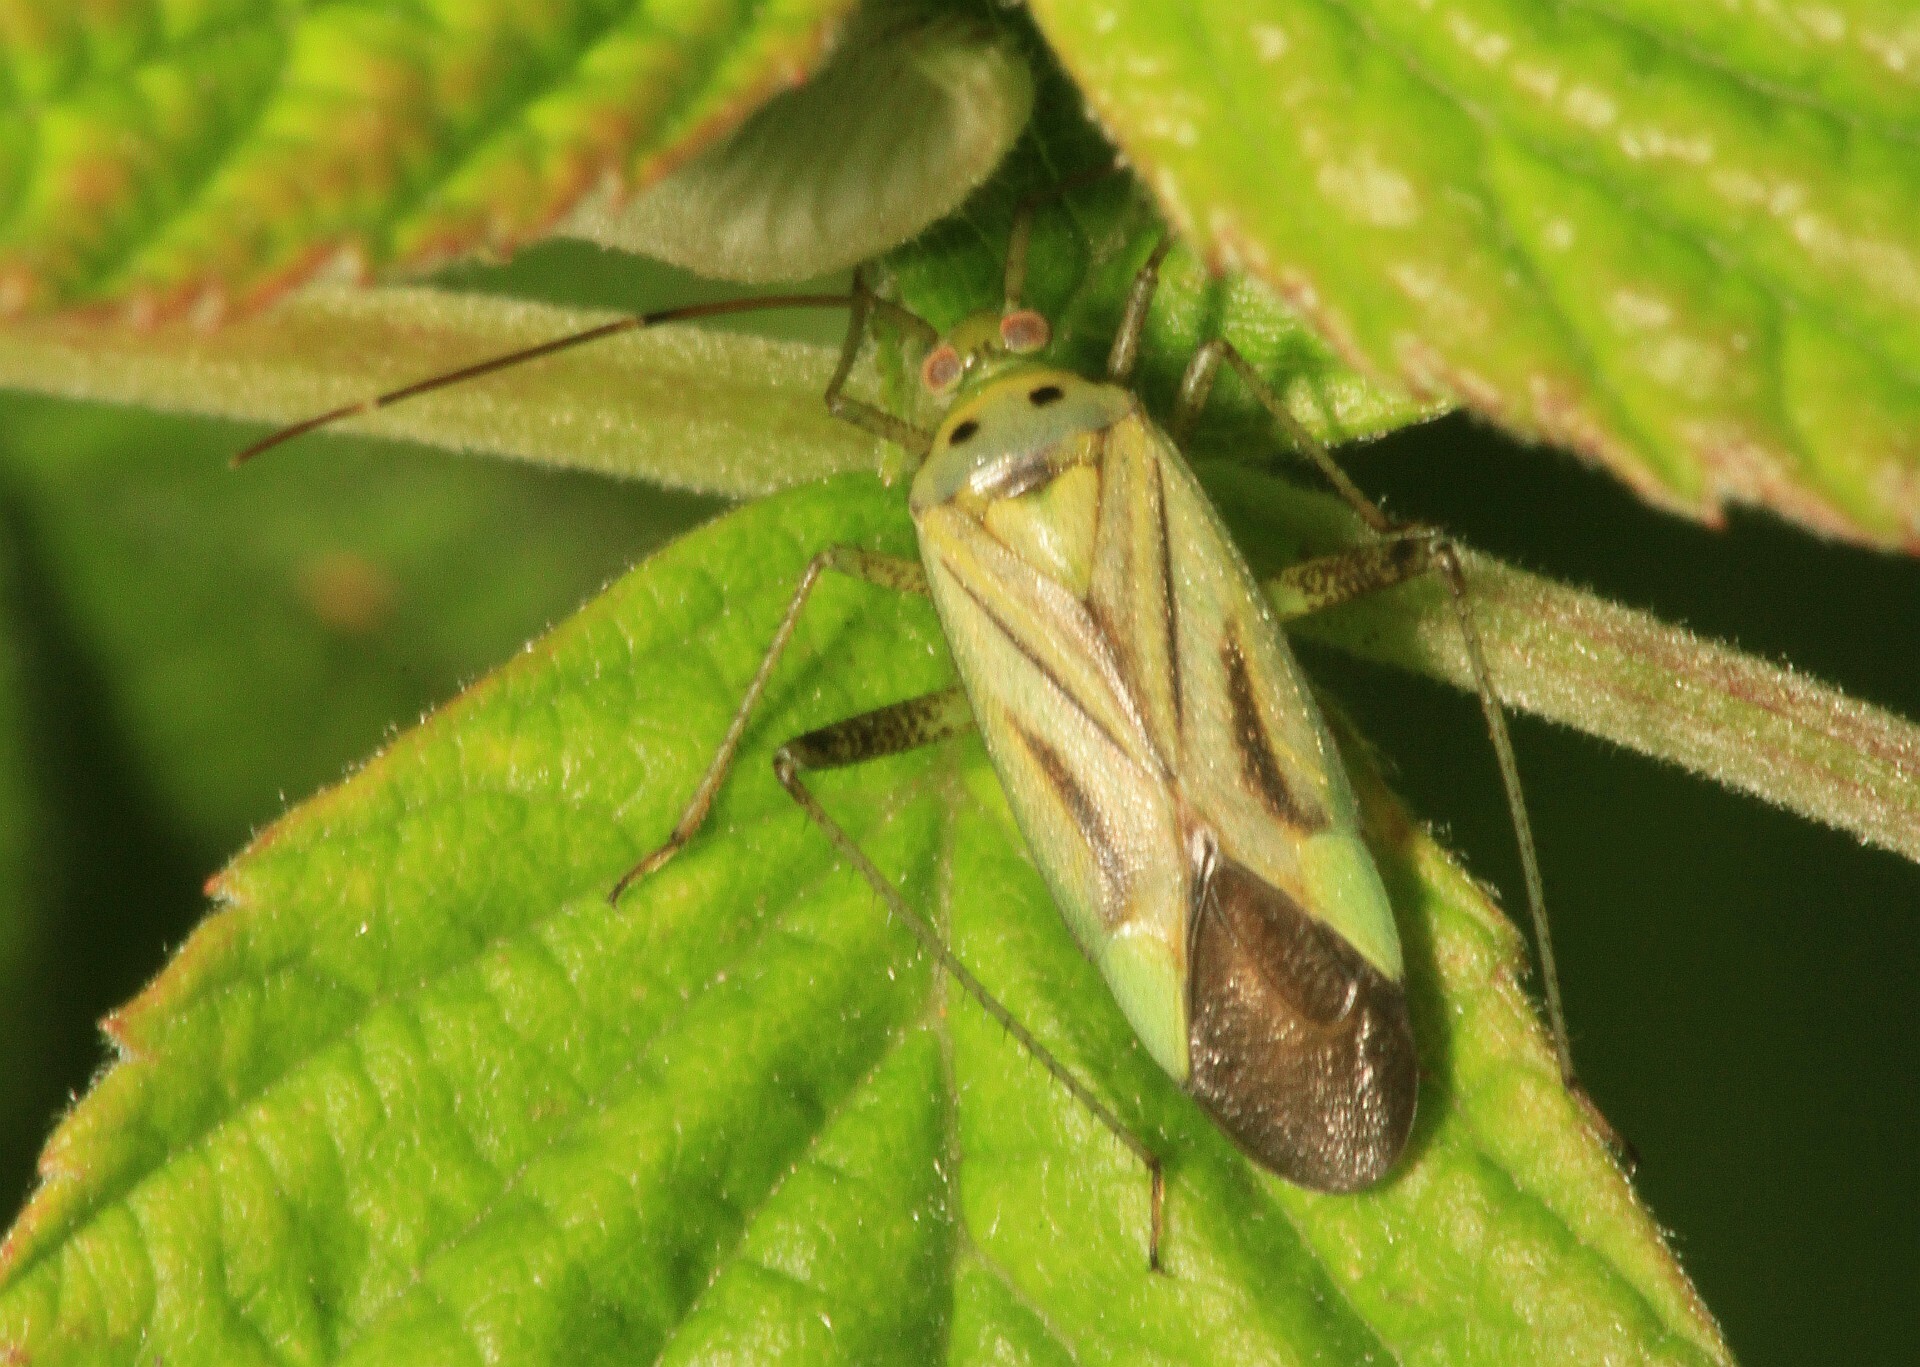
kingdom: Animalia
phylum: Arthropoda
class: Insecta
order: Hemiptera
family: Miridae
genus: Adelphocoris
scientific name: Adelphocoris quadripunctatus
